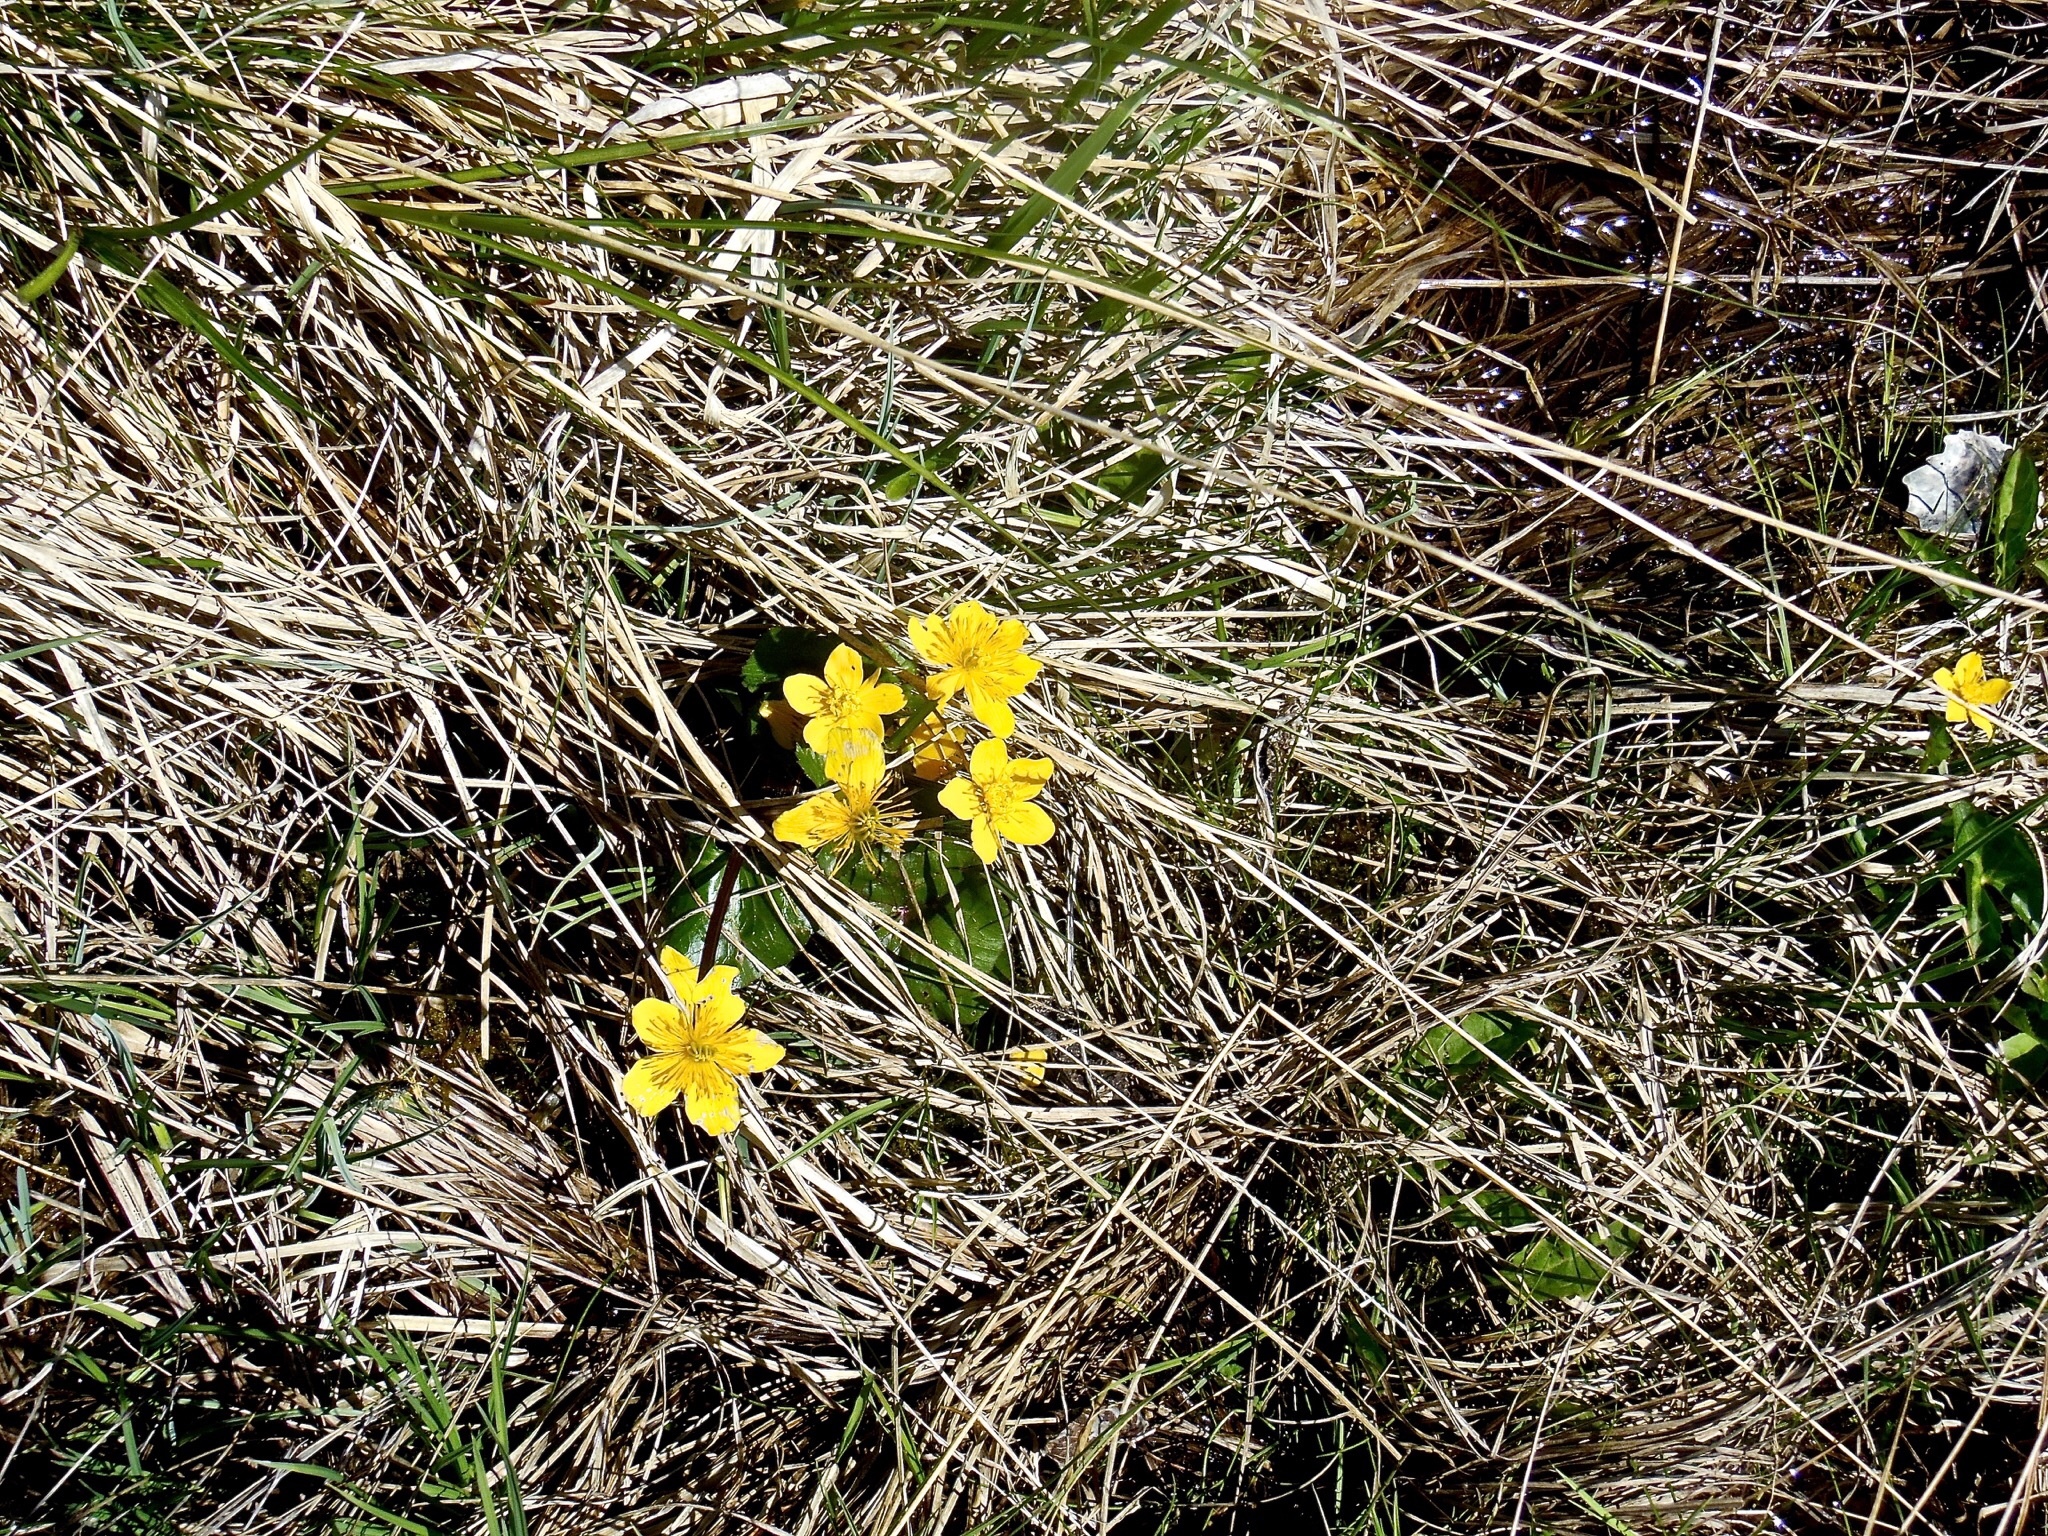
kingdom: Plantae
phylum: Tracheophyta
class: Magnoliopsida
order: Ranunculales
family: Ranunculaceae
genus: Caltha
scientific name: Caltha palustris
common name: Marsh marigold
